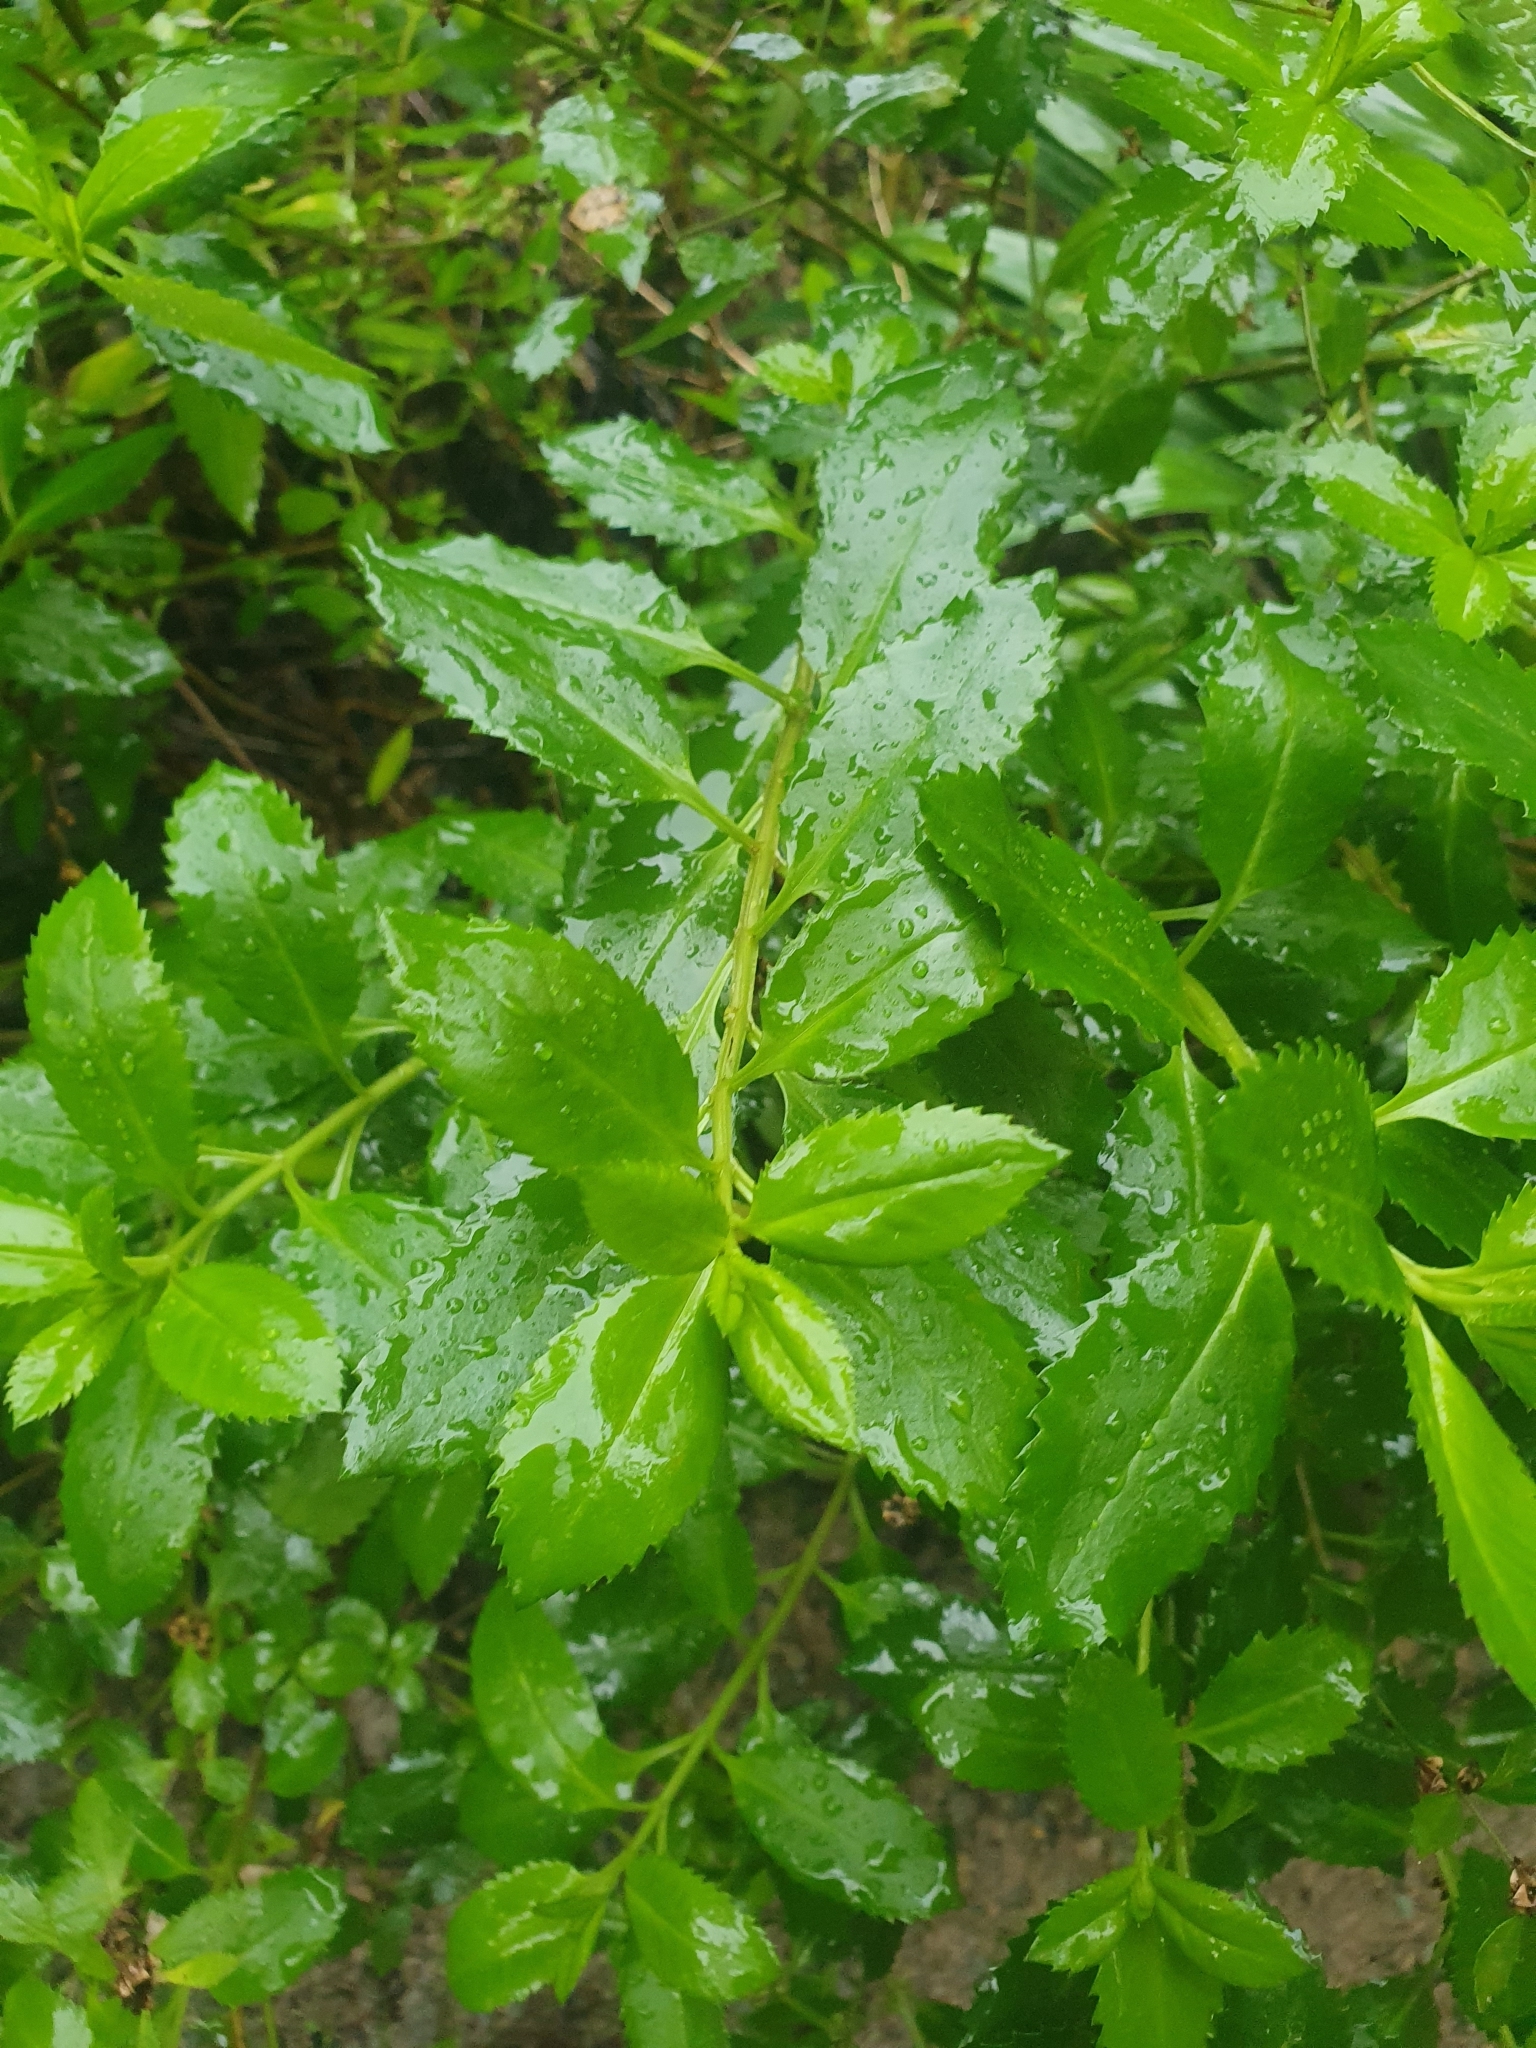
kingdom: Plantae
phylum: Tracheophyta
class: Magnoliopsida
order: Saxifragales
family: Haloragaceae
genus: Haloragis
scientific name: Haloragis erecta
